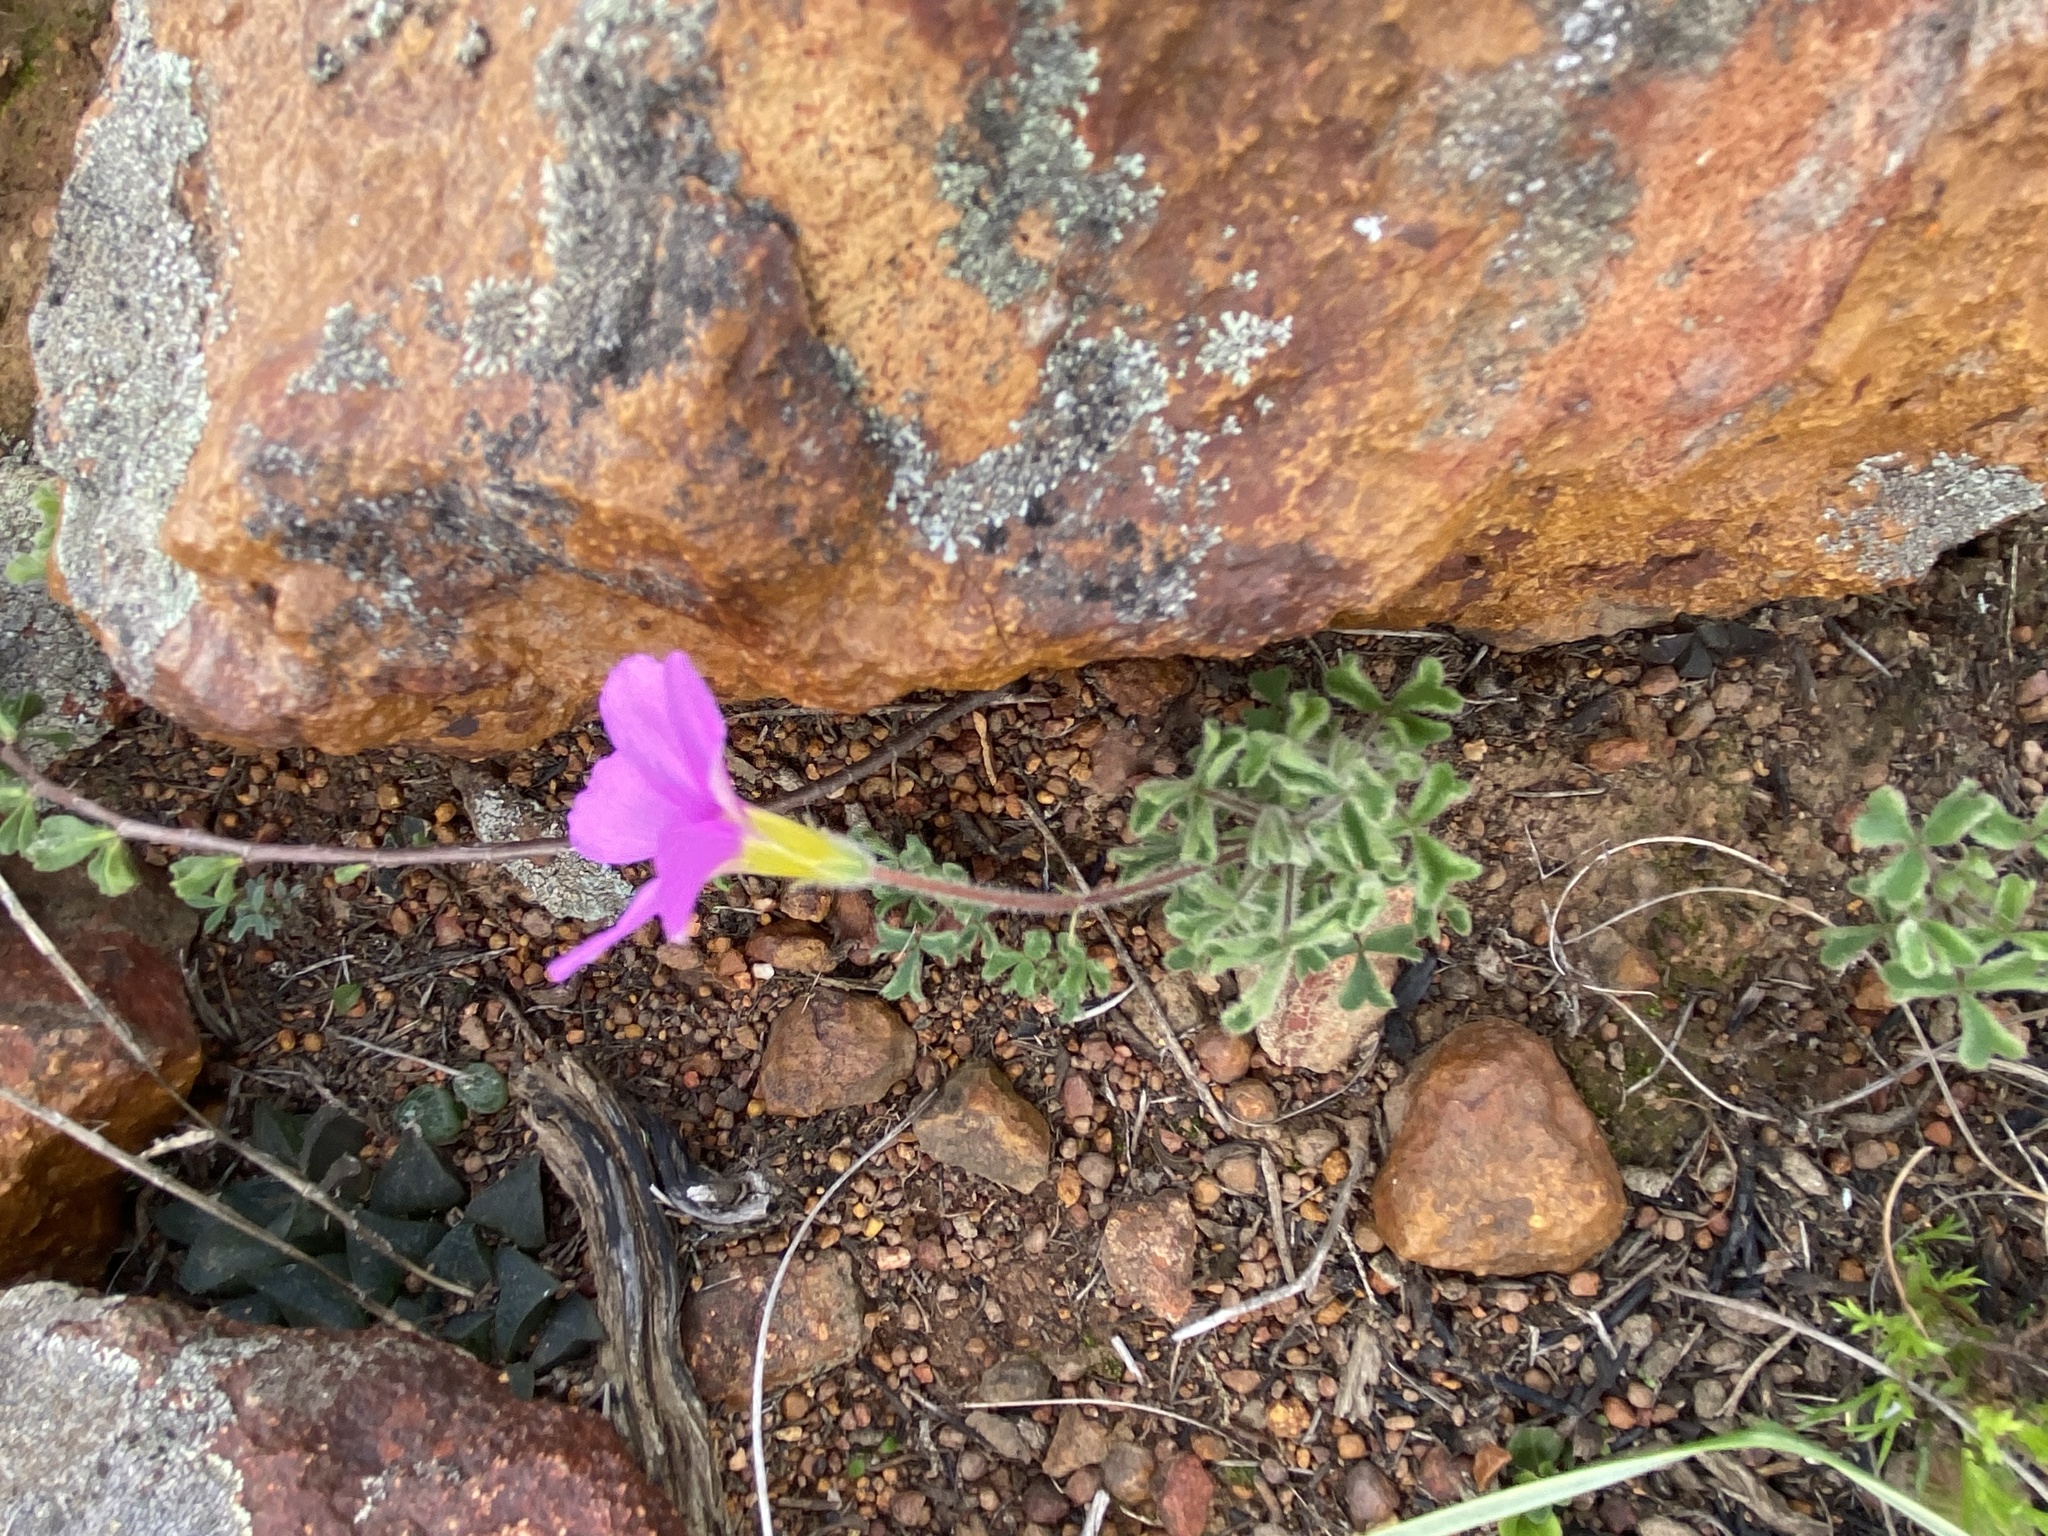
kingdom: Plantae
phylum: Tracheophyta
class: Magnoliopsida
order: Oxalidales
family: Oxalidaceae
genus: Oxalis
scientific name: Oxalis imbricata
